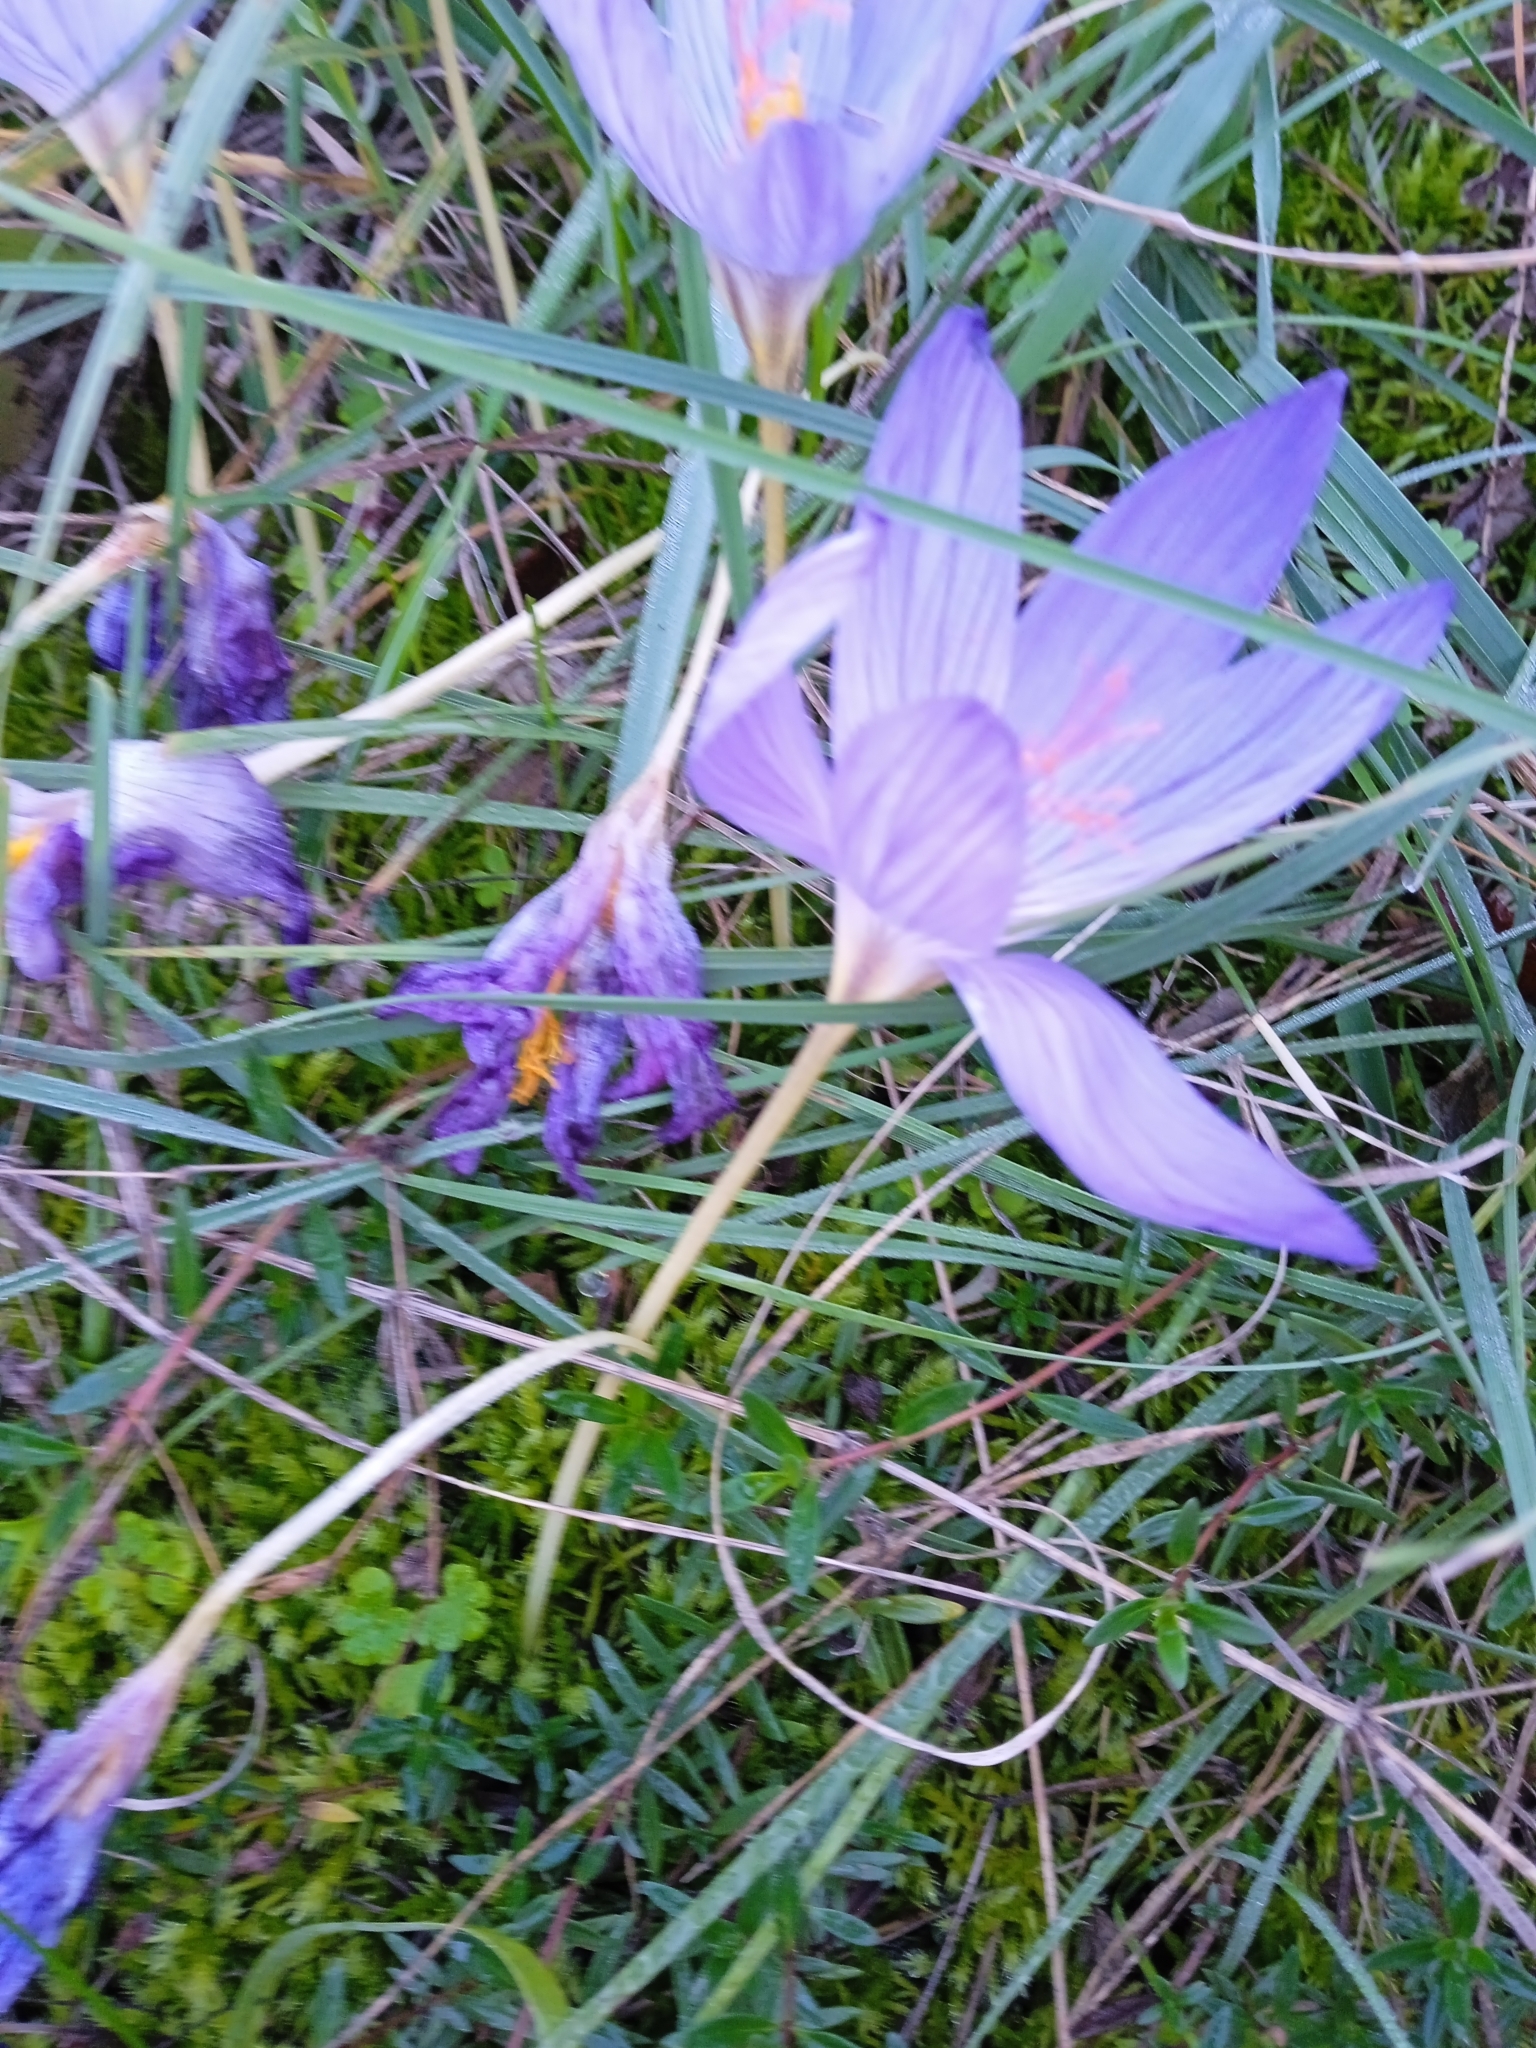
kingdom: Plantae
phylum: Tracheophyta
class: Liliopsida
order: Asparagales
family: Iridaceae
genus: Crocus
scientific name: Crocus speciosus
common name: Bieberstein's crocus
